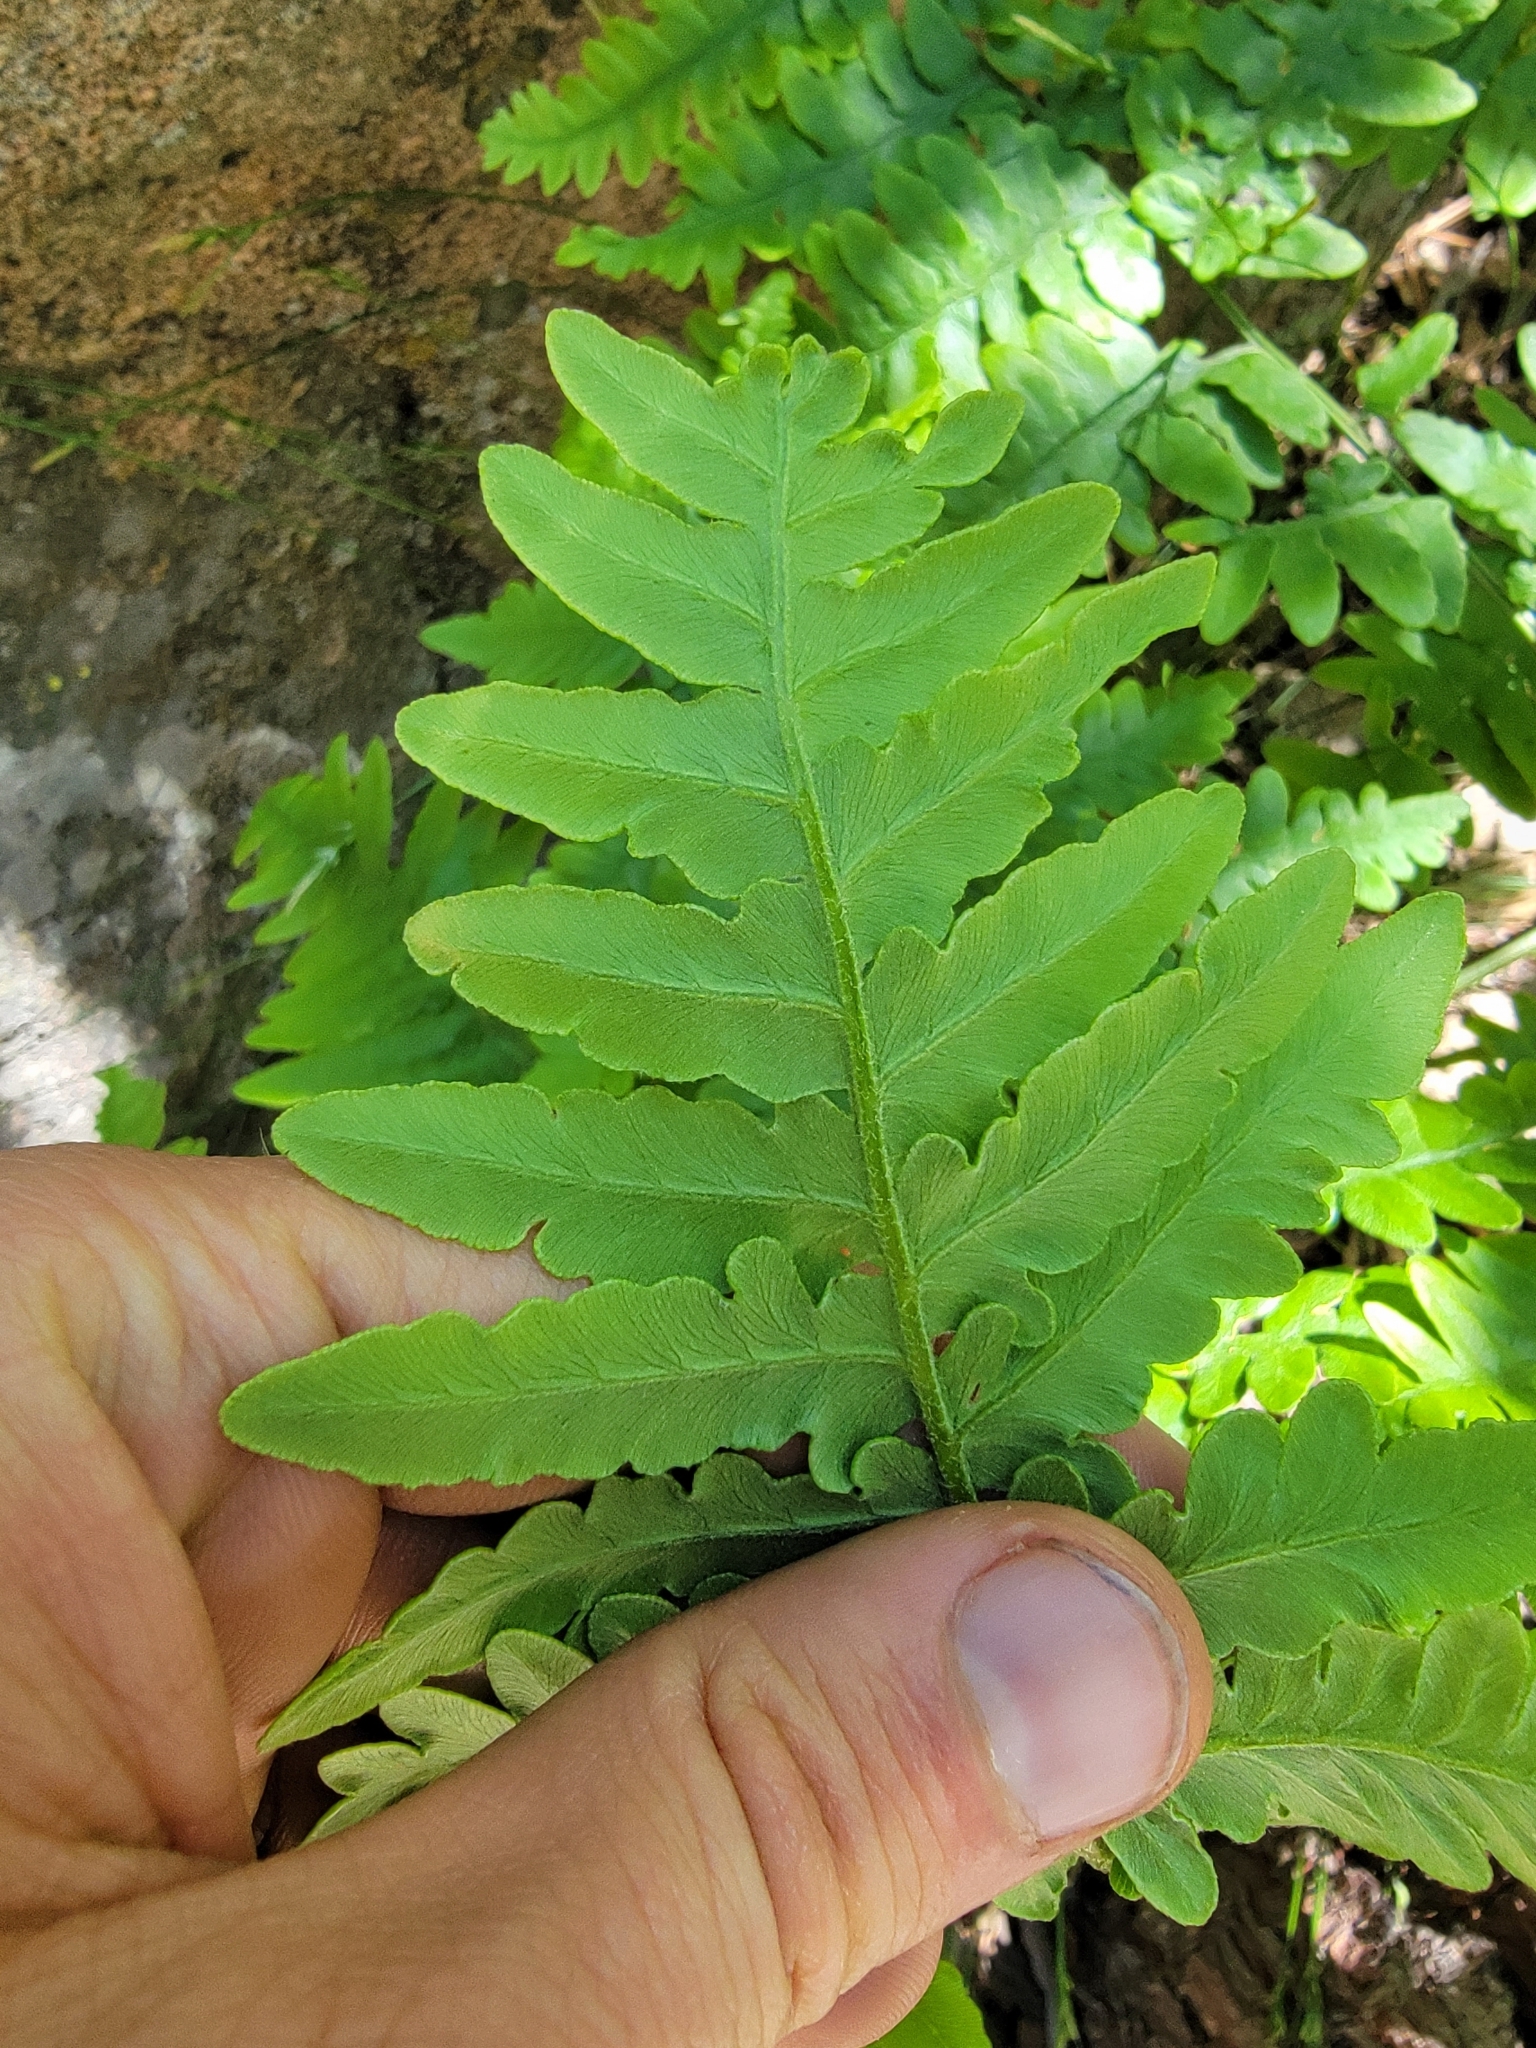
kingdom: Plantae
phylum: Tracheophyta
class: Polypodiopsida
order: Polypodiales
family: Dennstaedtiaceae
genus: Pteridium
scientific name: Pteridium aquilinum
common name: Bracken
